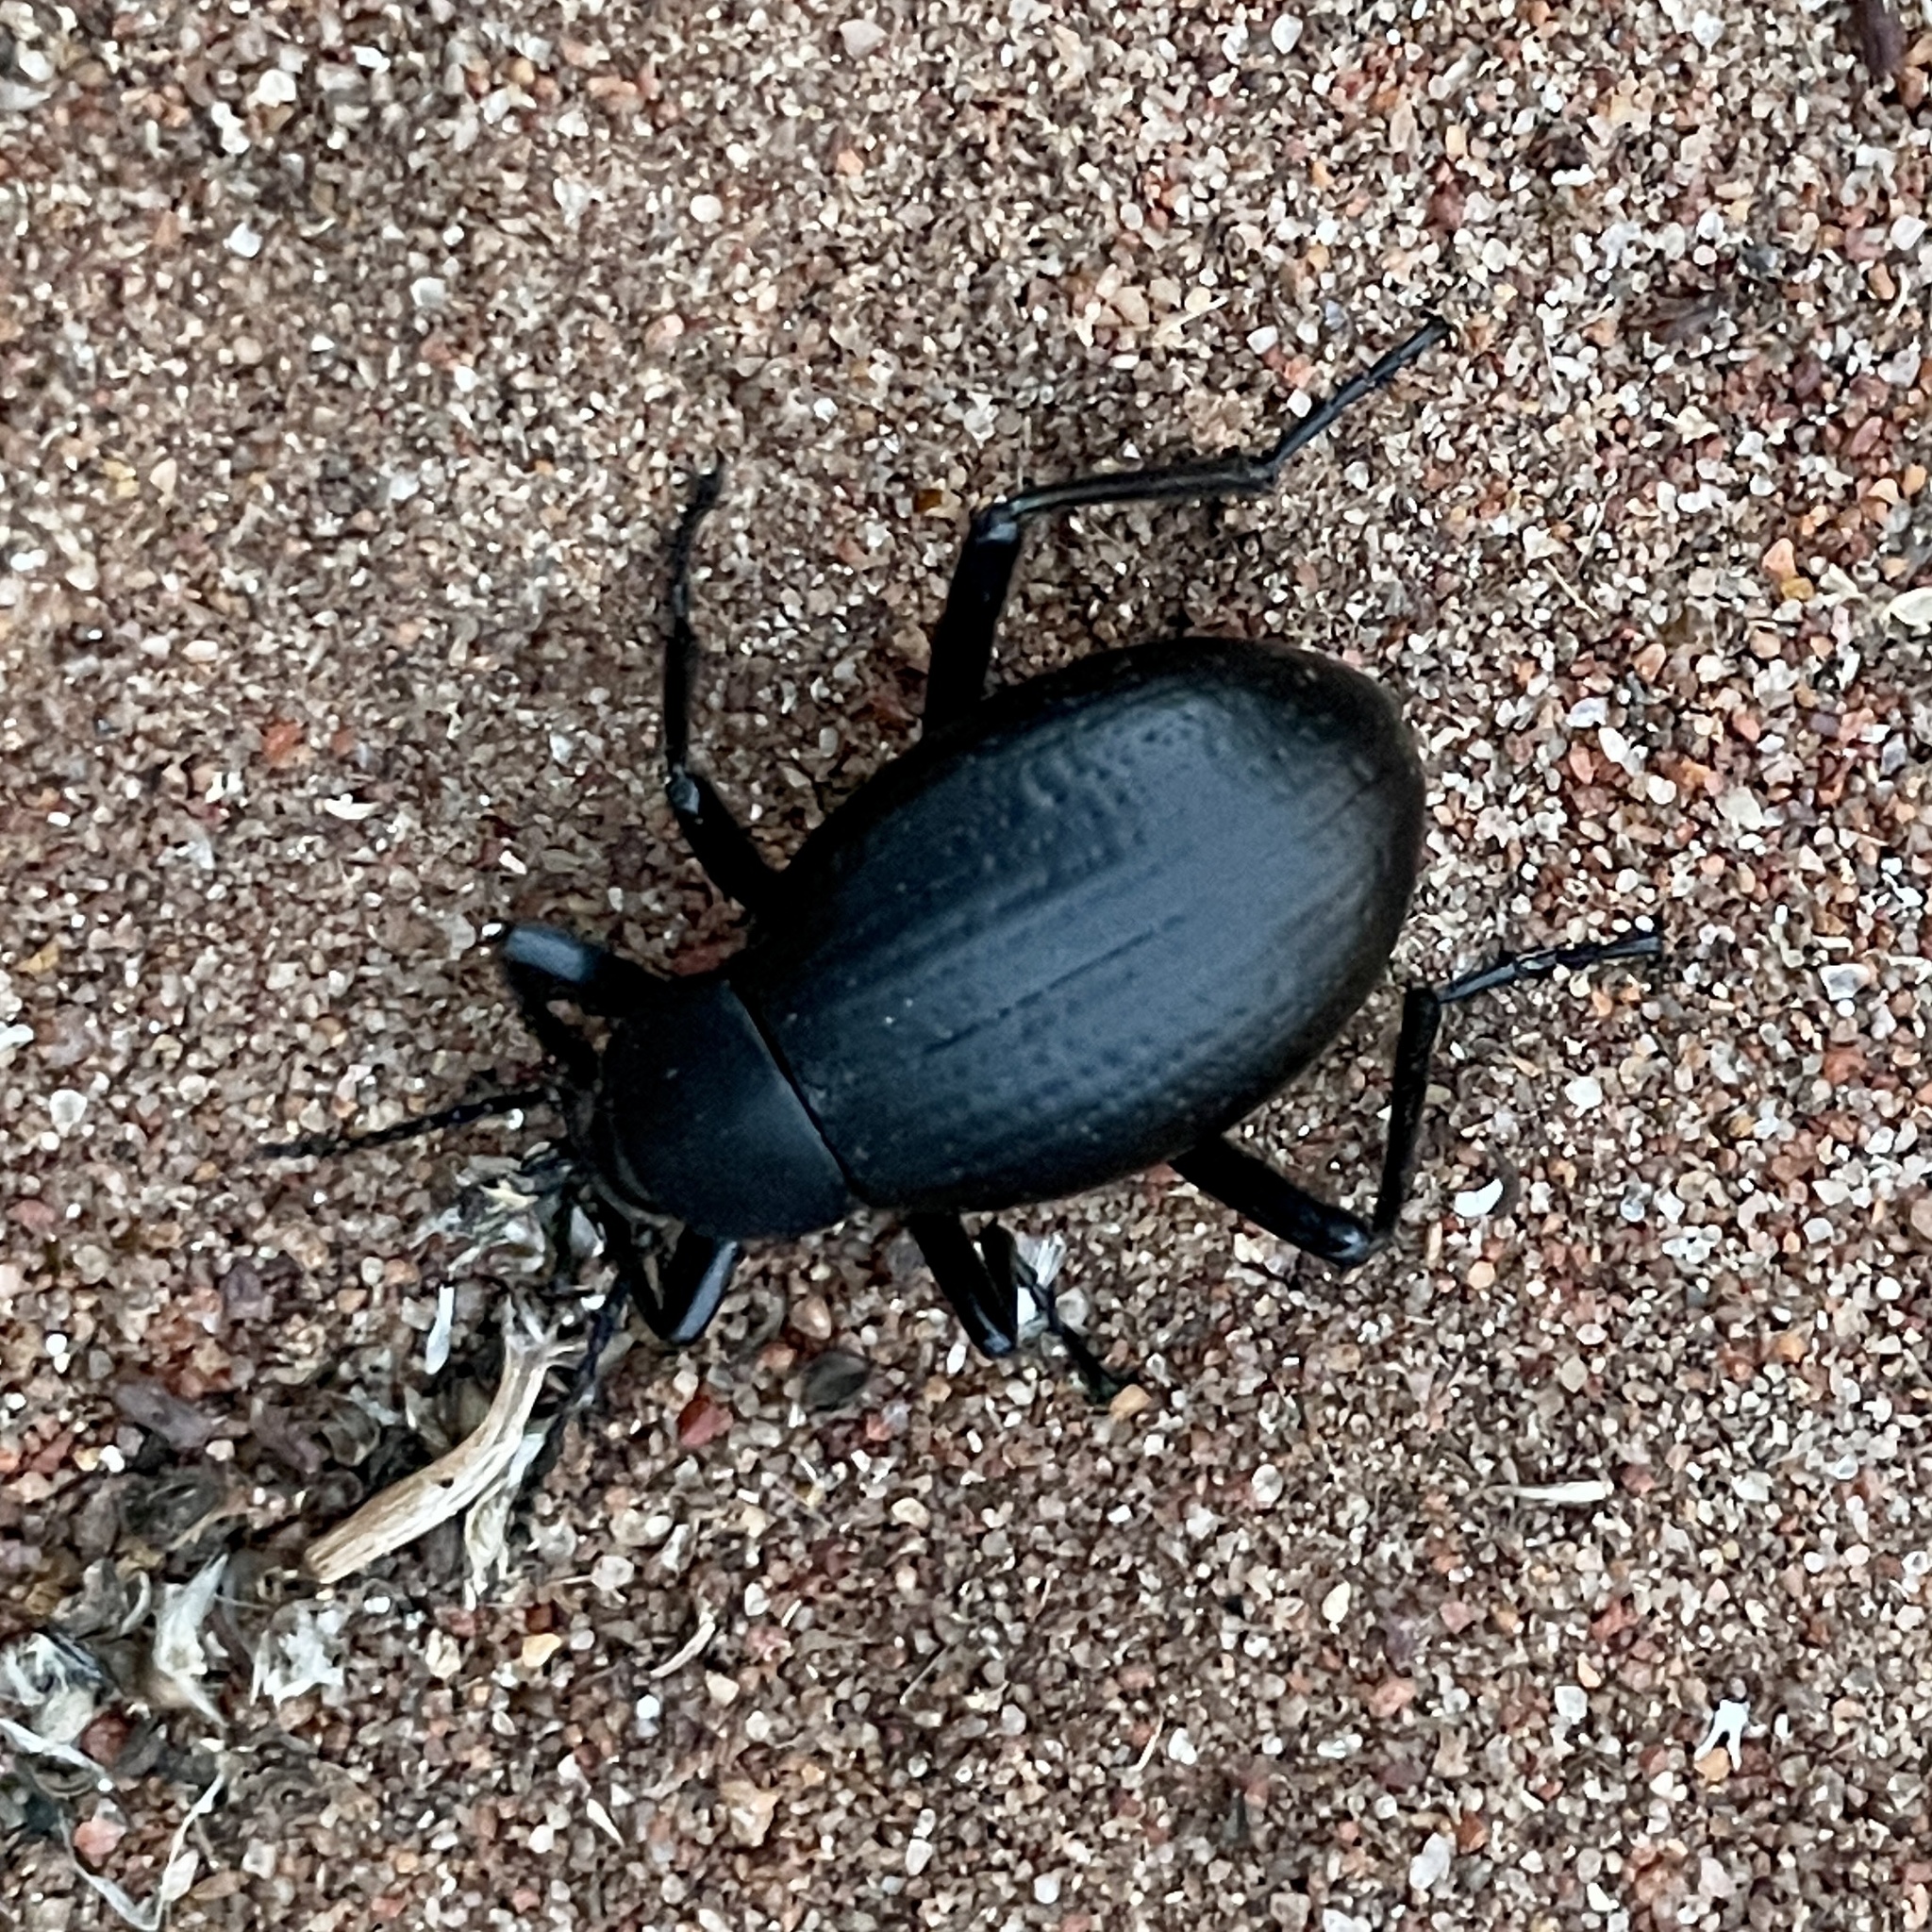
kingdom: Animalia
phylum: Arthropoda
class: Insecta
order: Coleoptera
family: Tenebrionidae
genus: Eleodes
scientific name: Eleodes goryi
